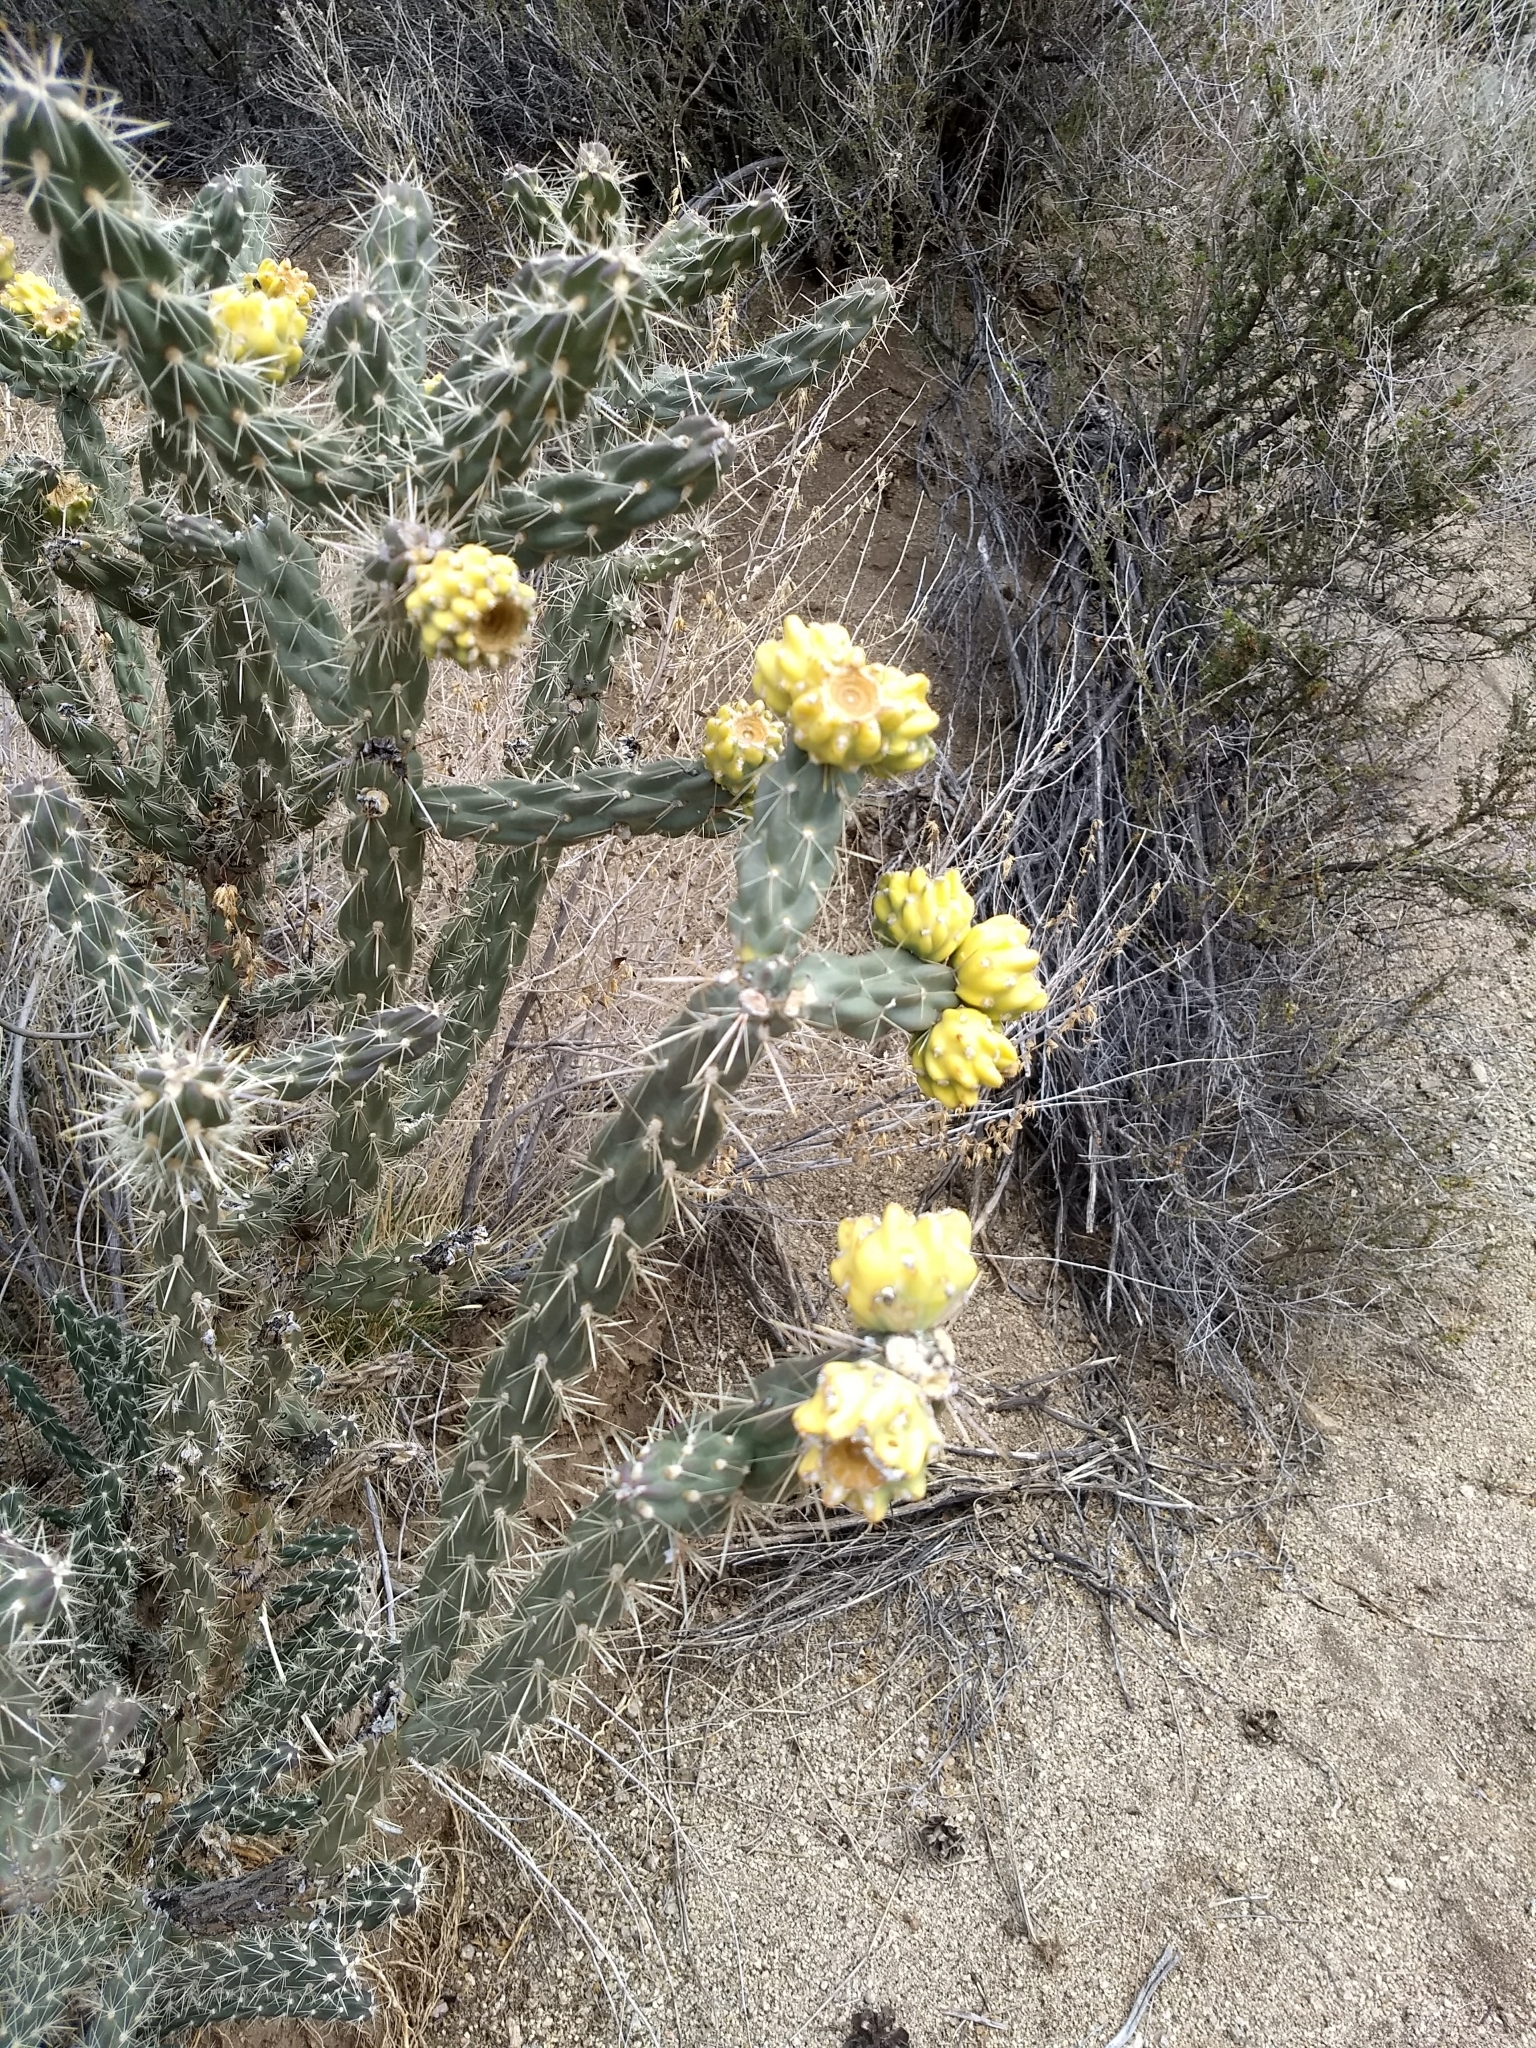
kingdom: Plantae
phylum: Tracheophyta
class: Magnoliopsida
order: Caryophyllales
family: Cactaceae
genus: Cylindropuntia
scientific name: Cylindropuntia imbricata
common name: Candelabrum cactus
